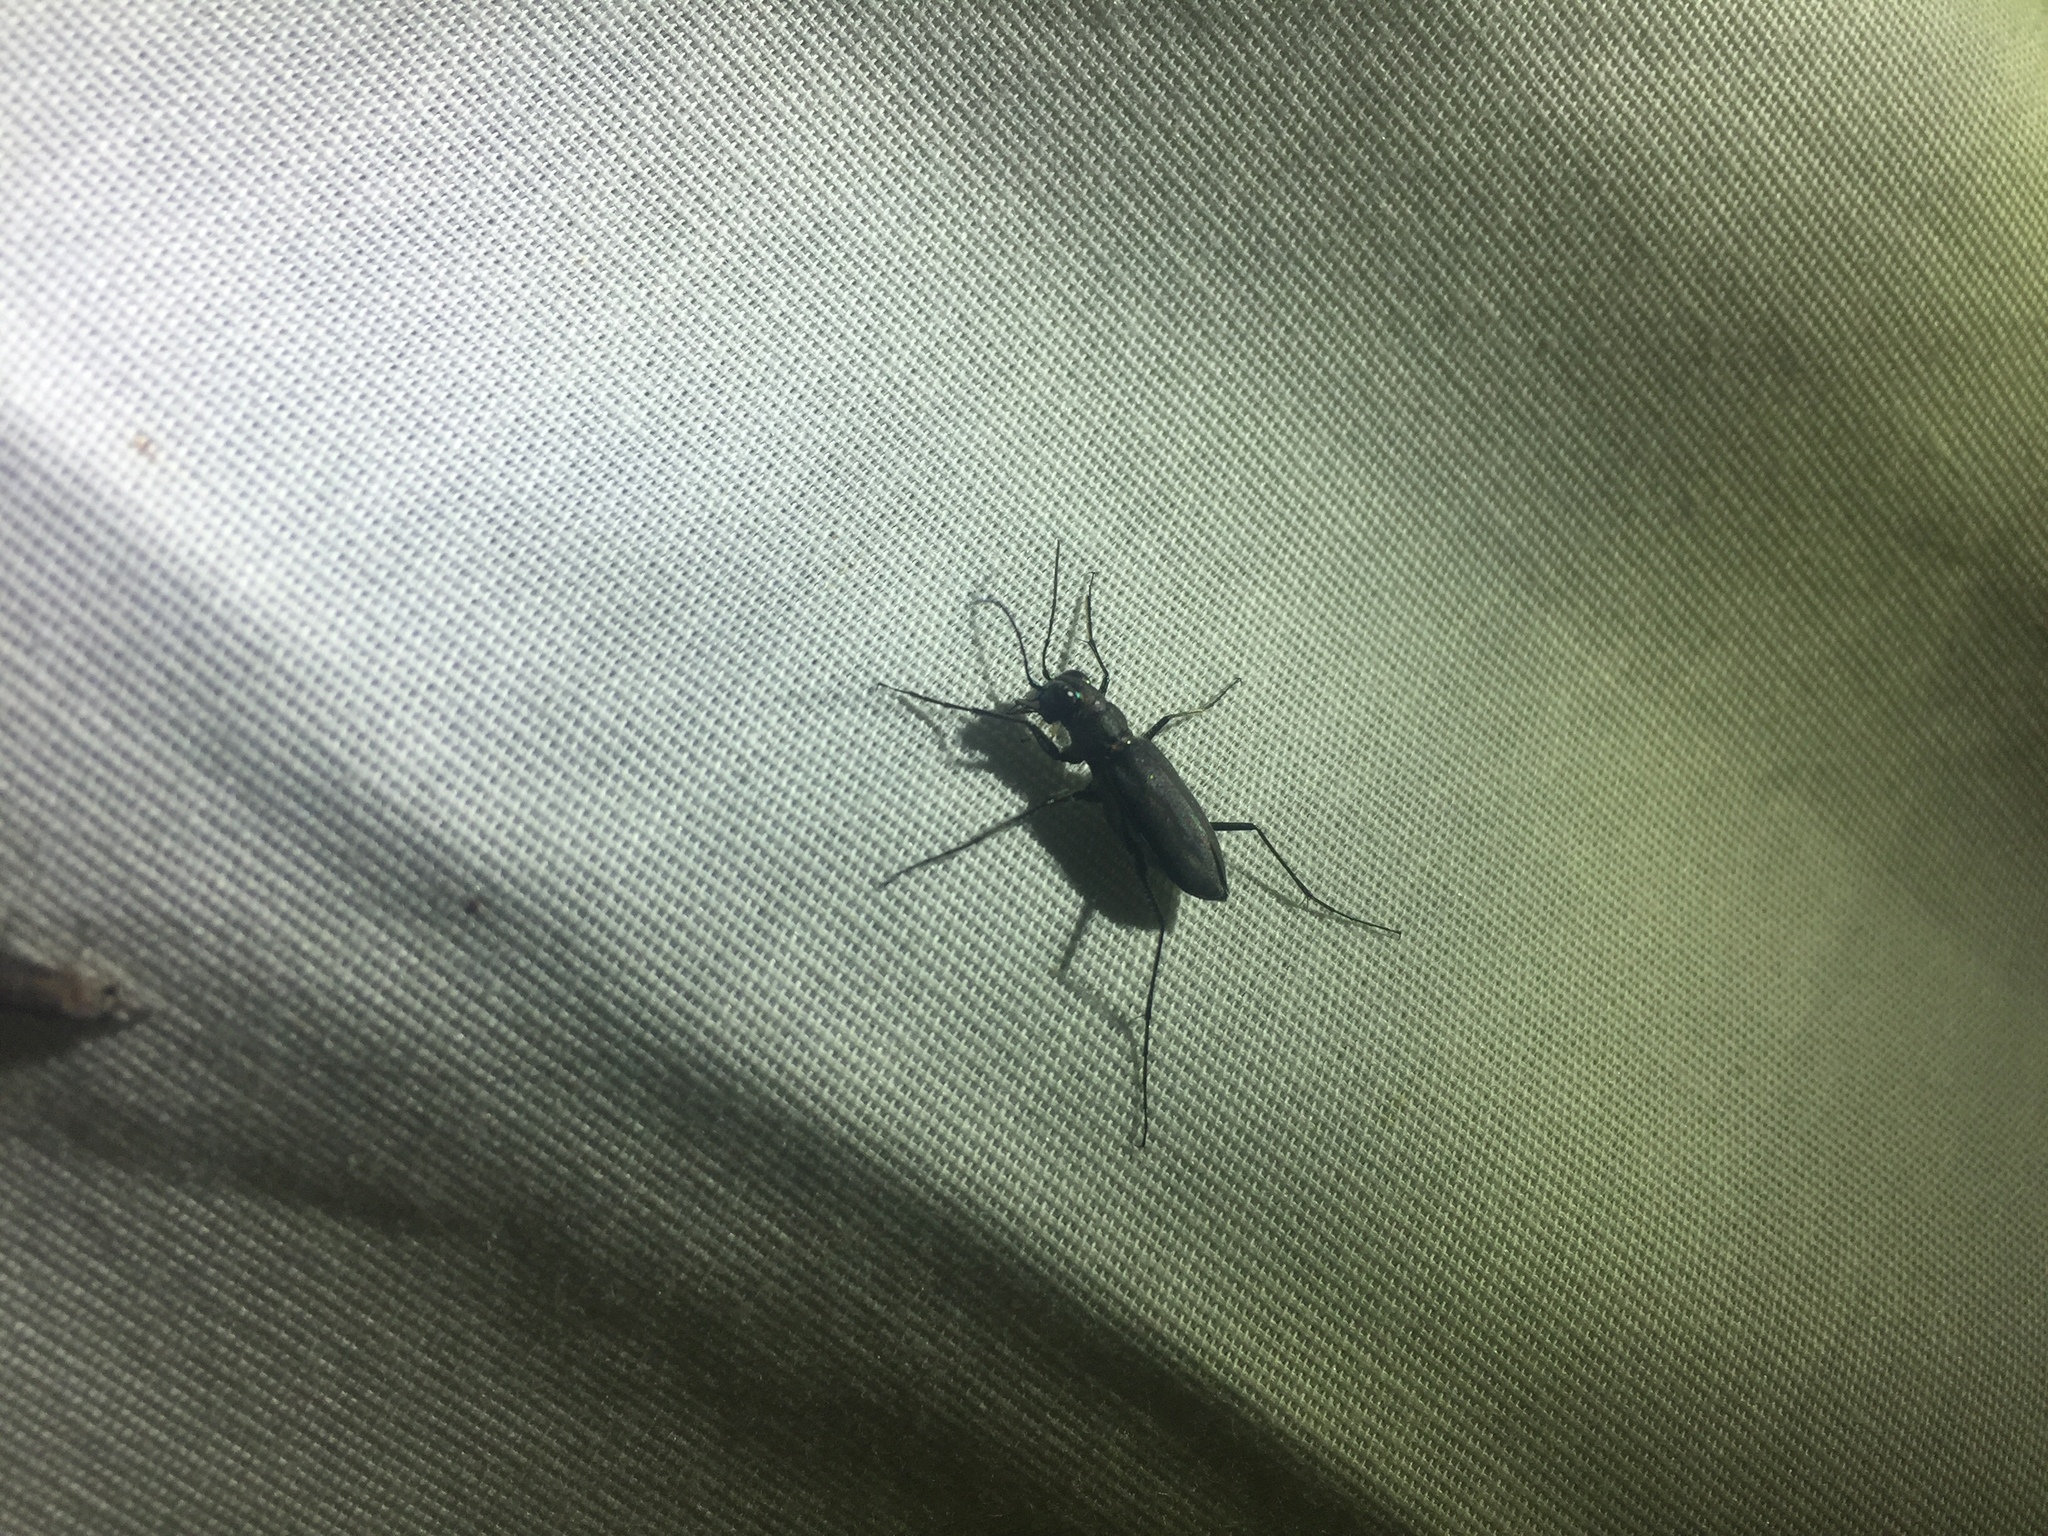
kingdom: Animalia
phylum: Arthropoda
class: Insecta
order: Coleoptera
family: Carabidae
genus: Cicindela
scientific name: Cicindela punctulata
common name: Punctured tiger beetle
